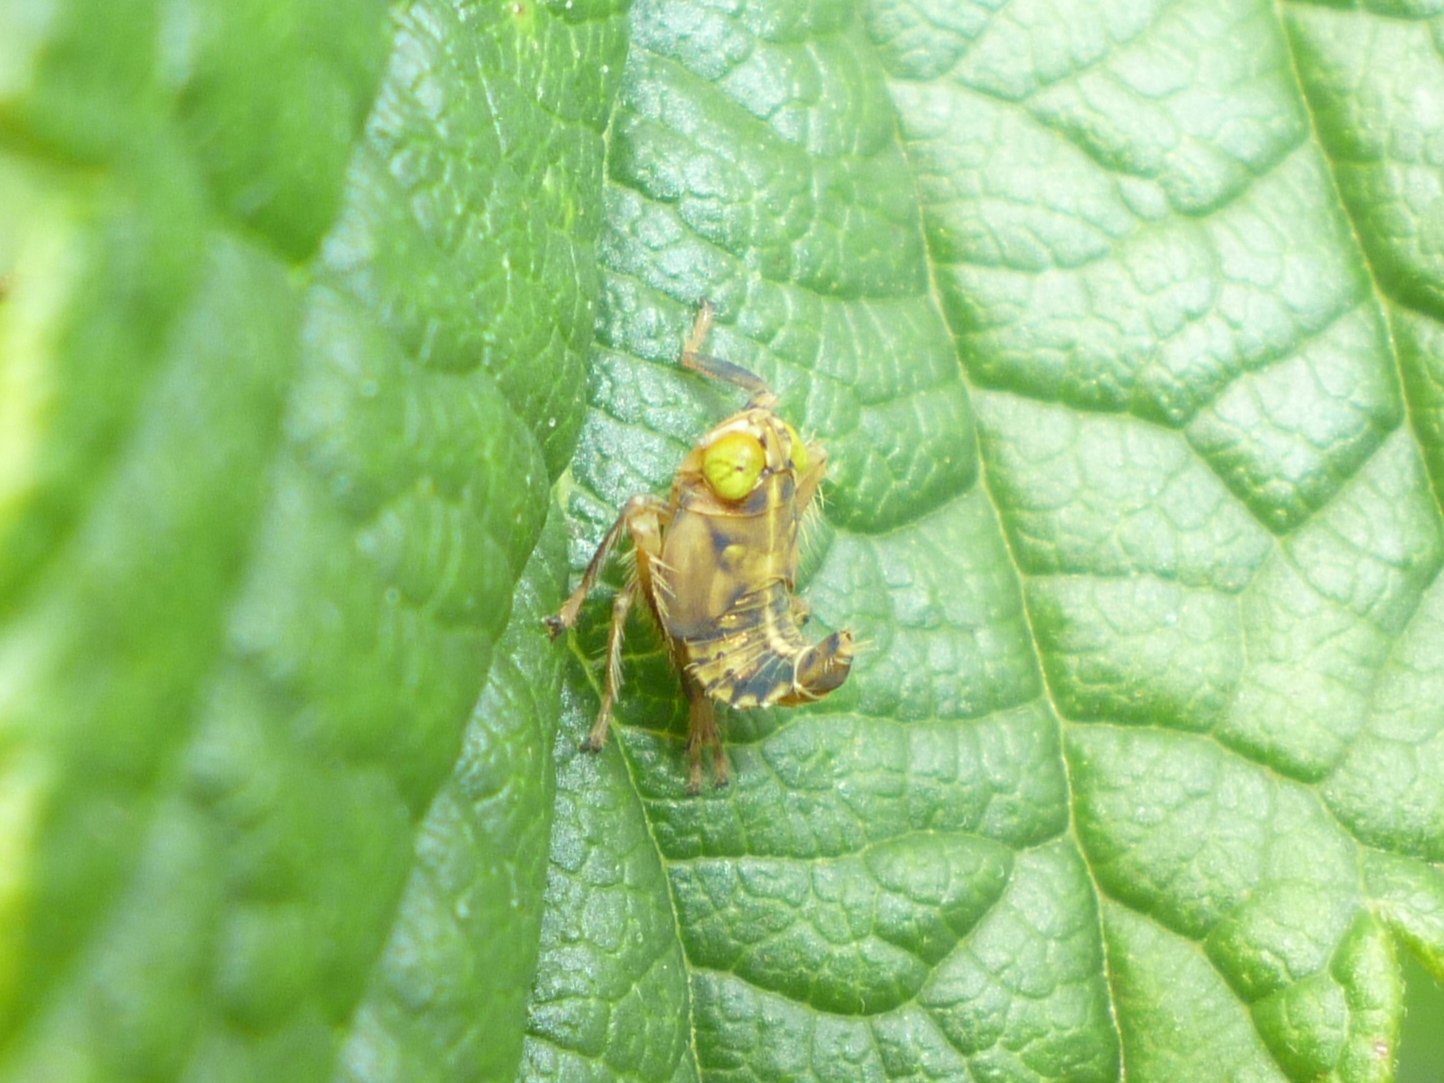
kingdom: Animalia
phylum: Arthropoda
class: Insecta
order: Hemiptera
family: Cicadellidae
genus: Jikradia
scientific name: Jikradia olitoria
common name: Coppery leafhopper
